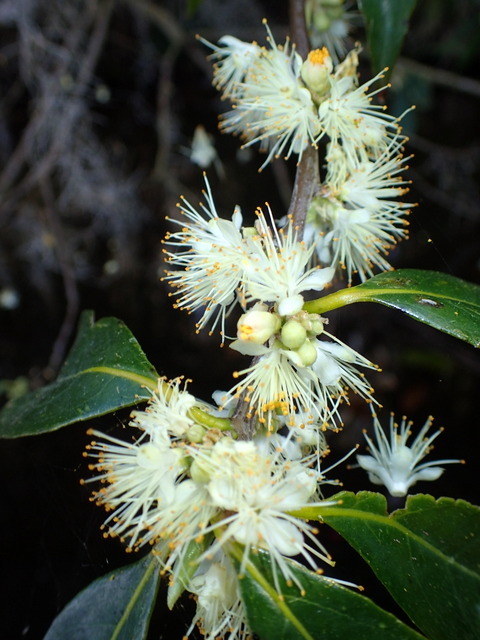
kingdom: Plantae
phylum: Tracheophyta
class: Magnoliopsida
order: Ericales
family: Symplocaceae
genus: Symplocos
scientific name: Symplocos tinctoria
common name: Horse-sugar
